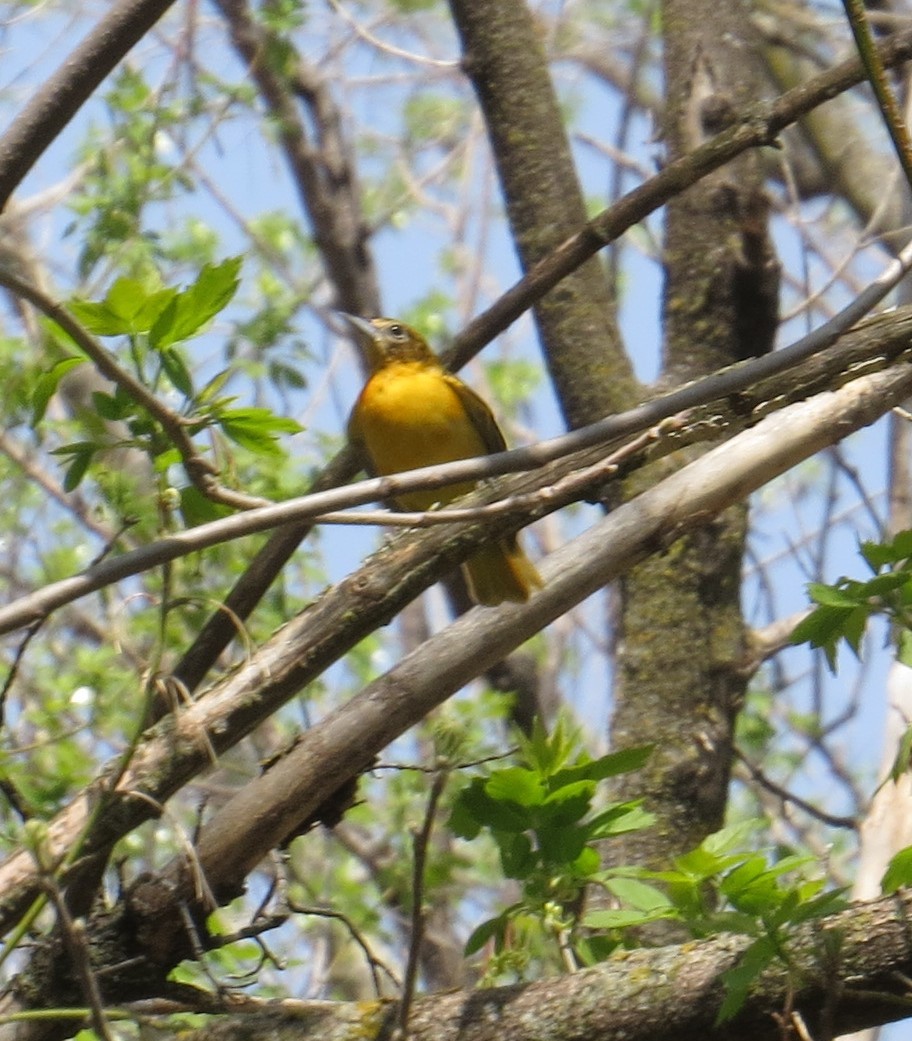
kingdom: Animalia
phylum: Chordata
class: Aves
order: Passeriformes
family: Icteridae
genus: Icterus
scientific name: Icterus galbula
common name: Baltimore oriole
